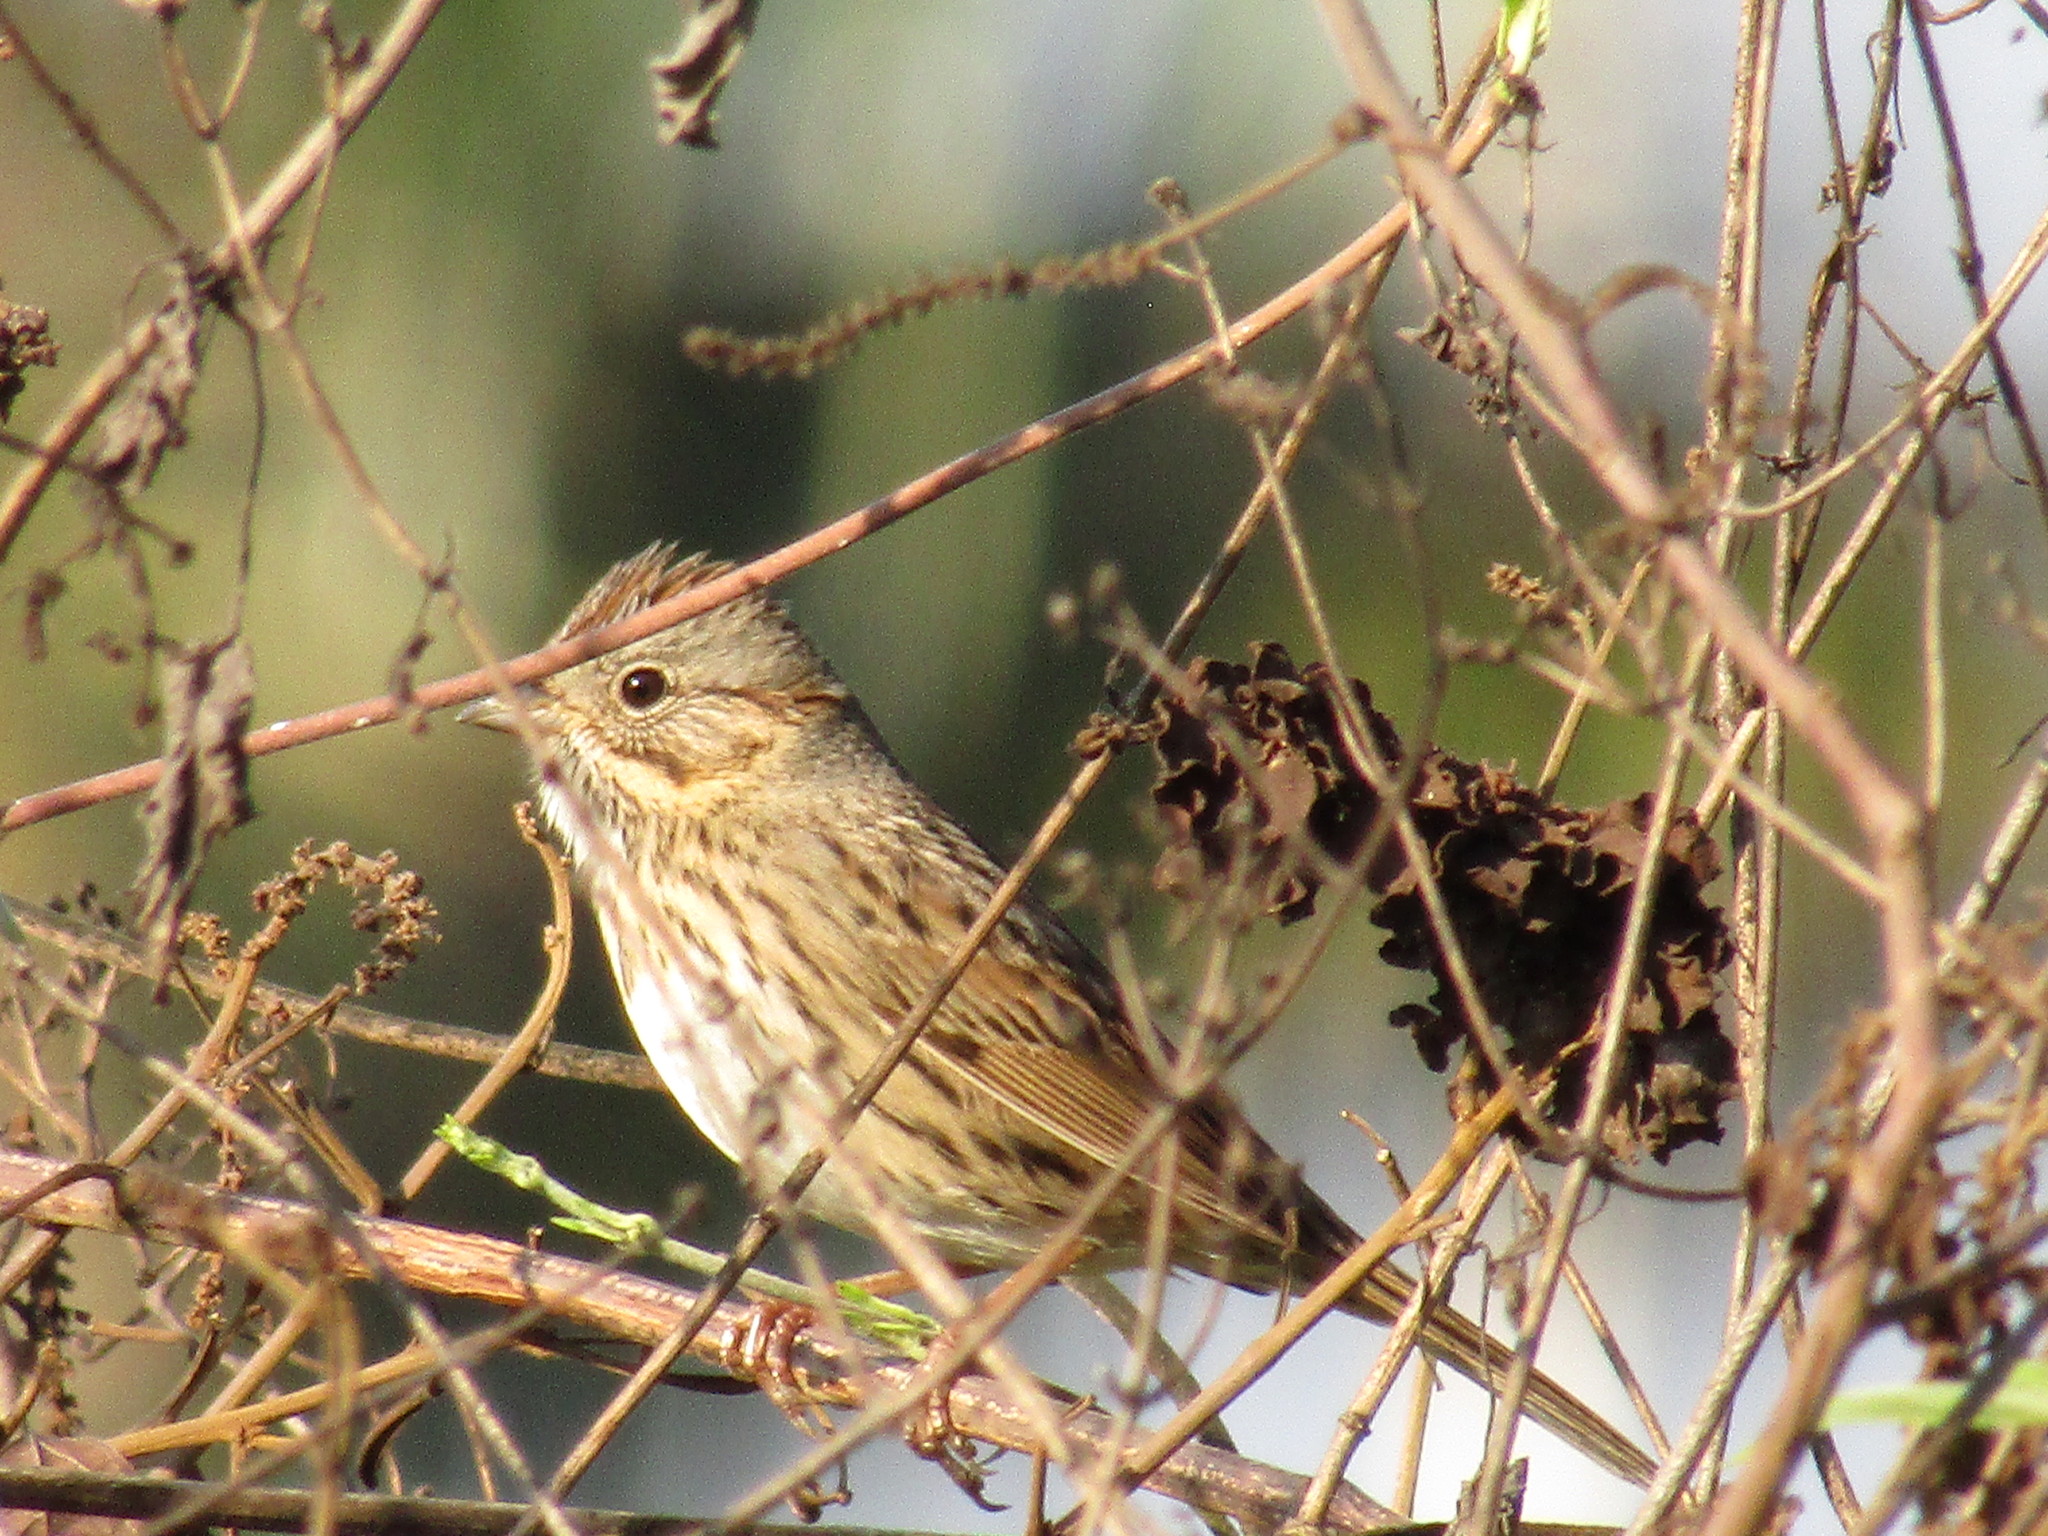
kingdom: Animalia
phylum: Chordata
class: Aves
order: Passeriformes
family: Passerellidae
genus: Melospiza
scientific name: Melospiza lincolnii
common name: Lincoln's sparrow
